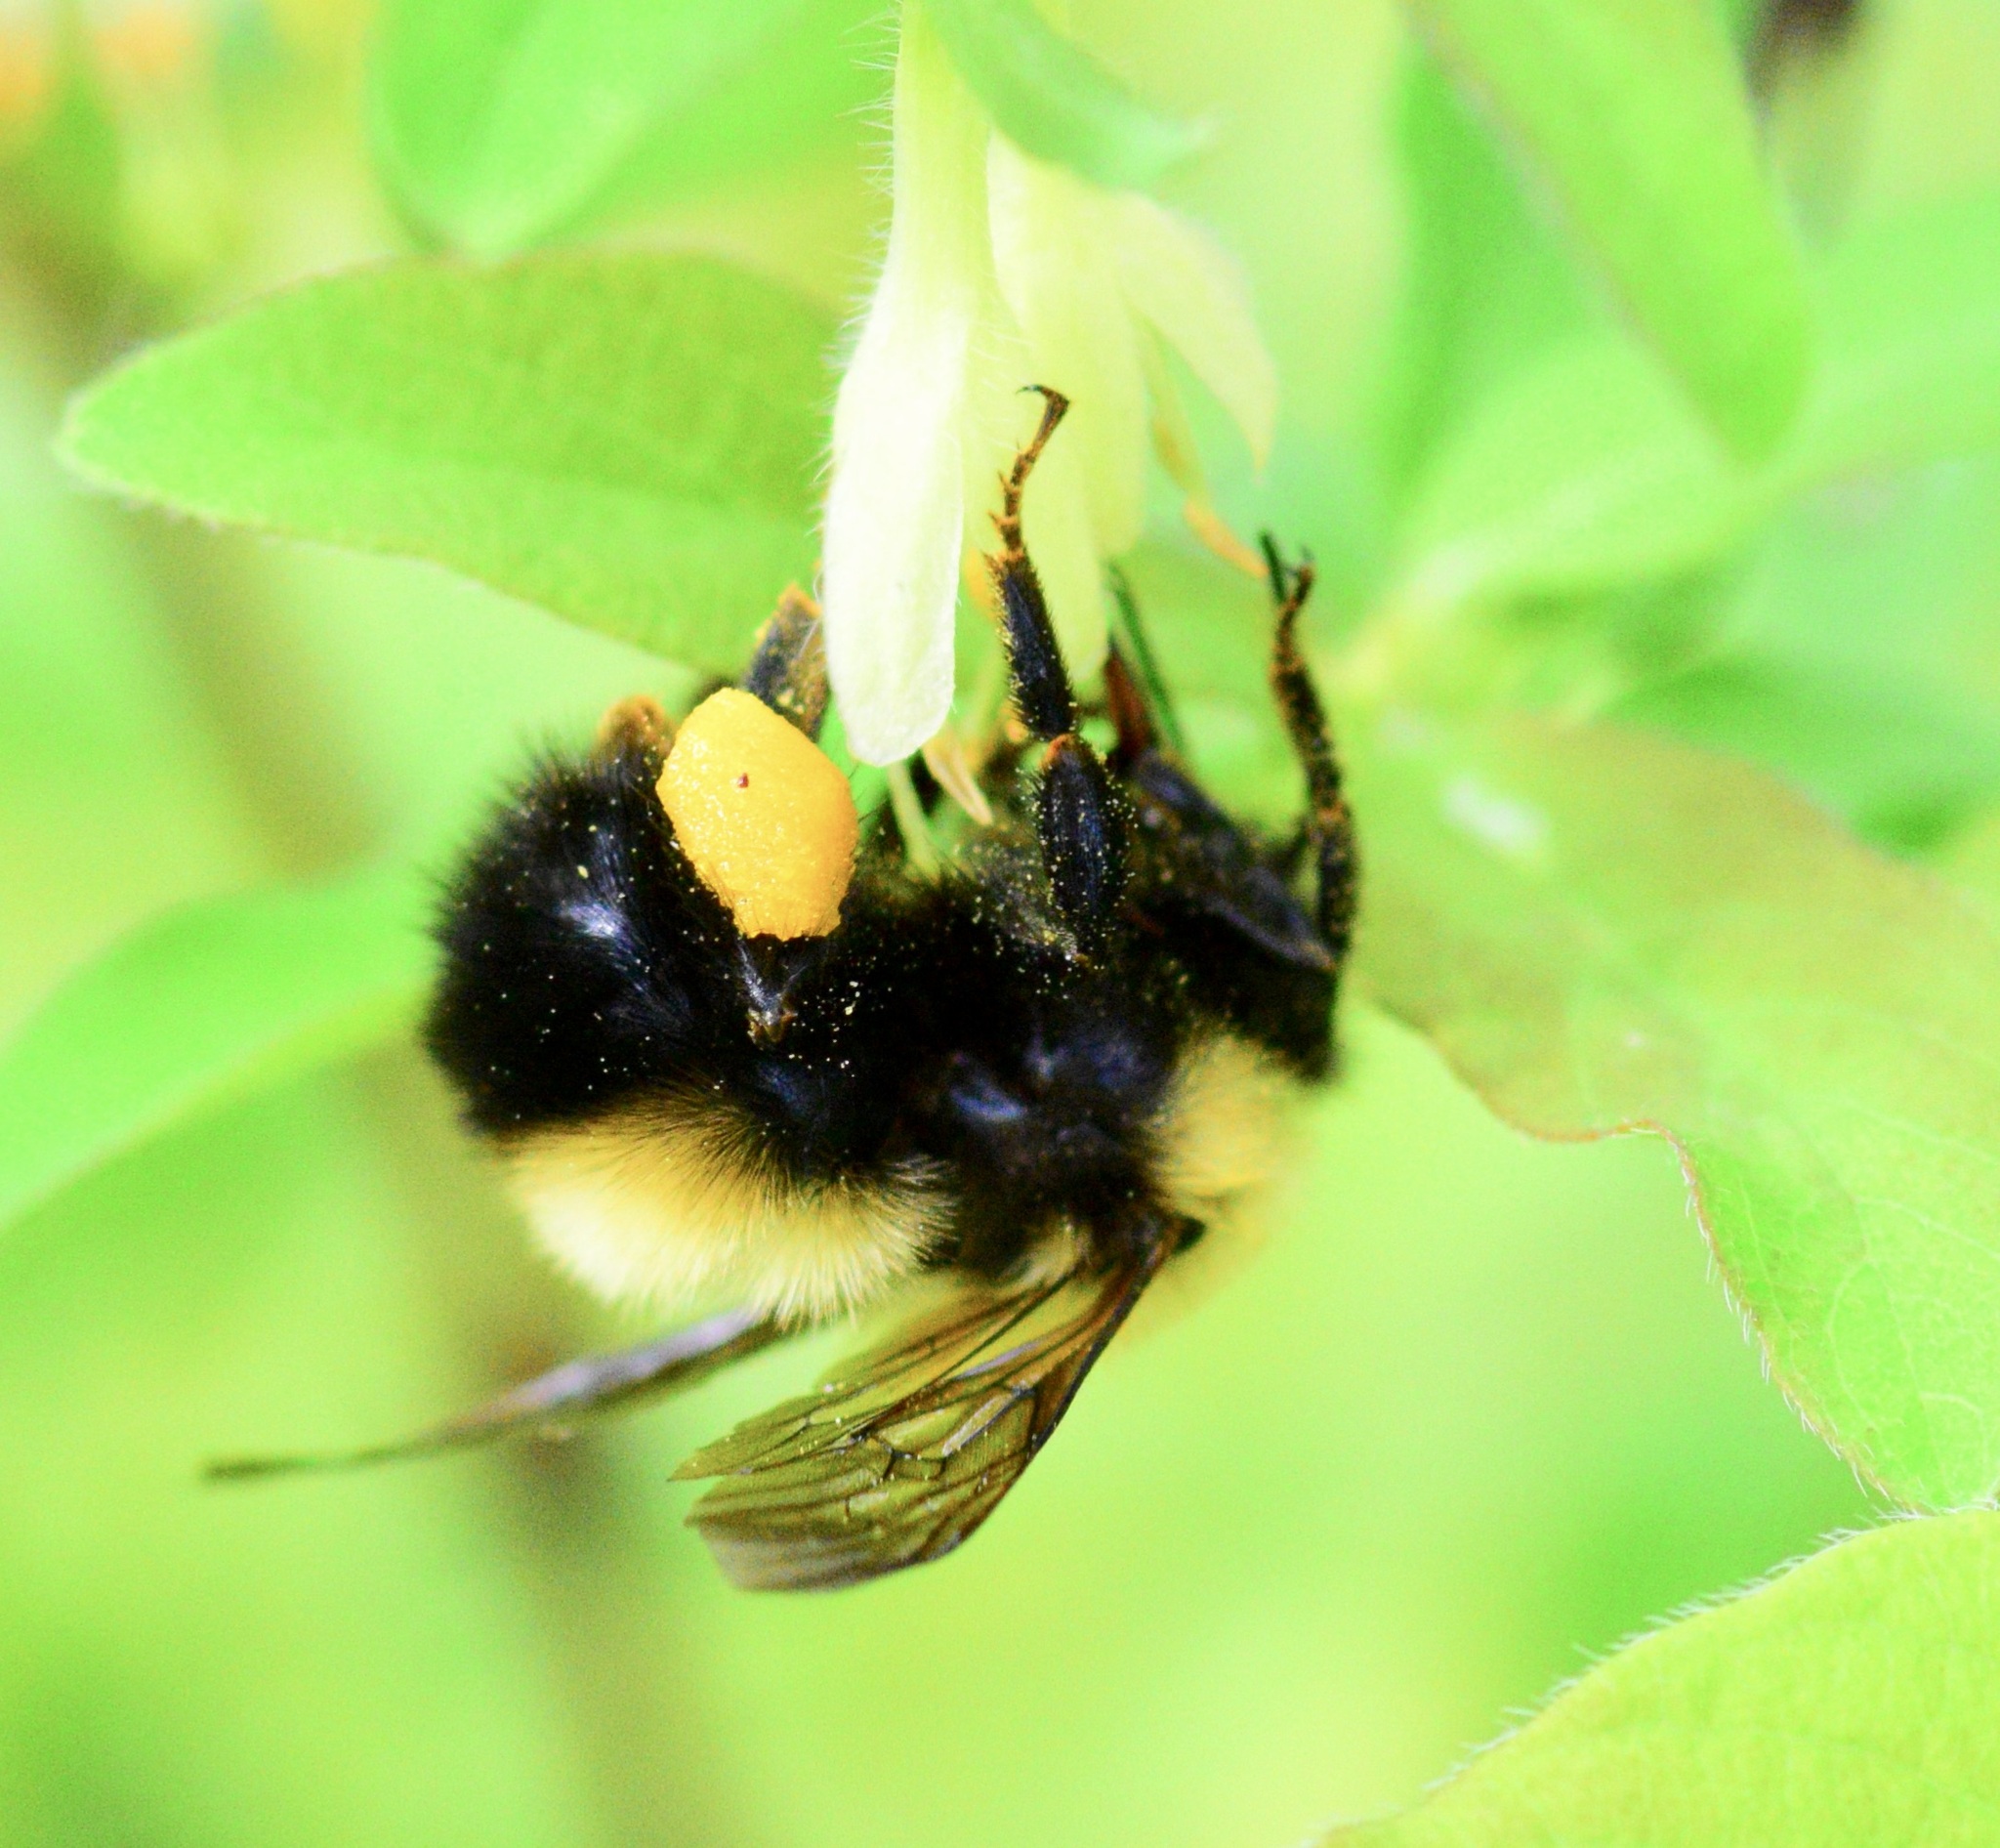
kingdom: Animalia
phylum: Arthropoda
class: Insecta
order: Hymenoptera
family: Apidae
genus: Bombus
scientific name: Bombus perplexus
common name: Confusing bumble bee
